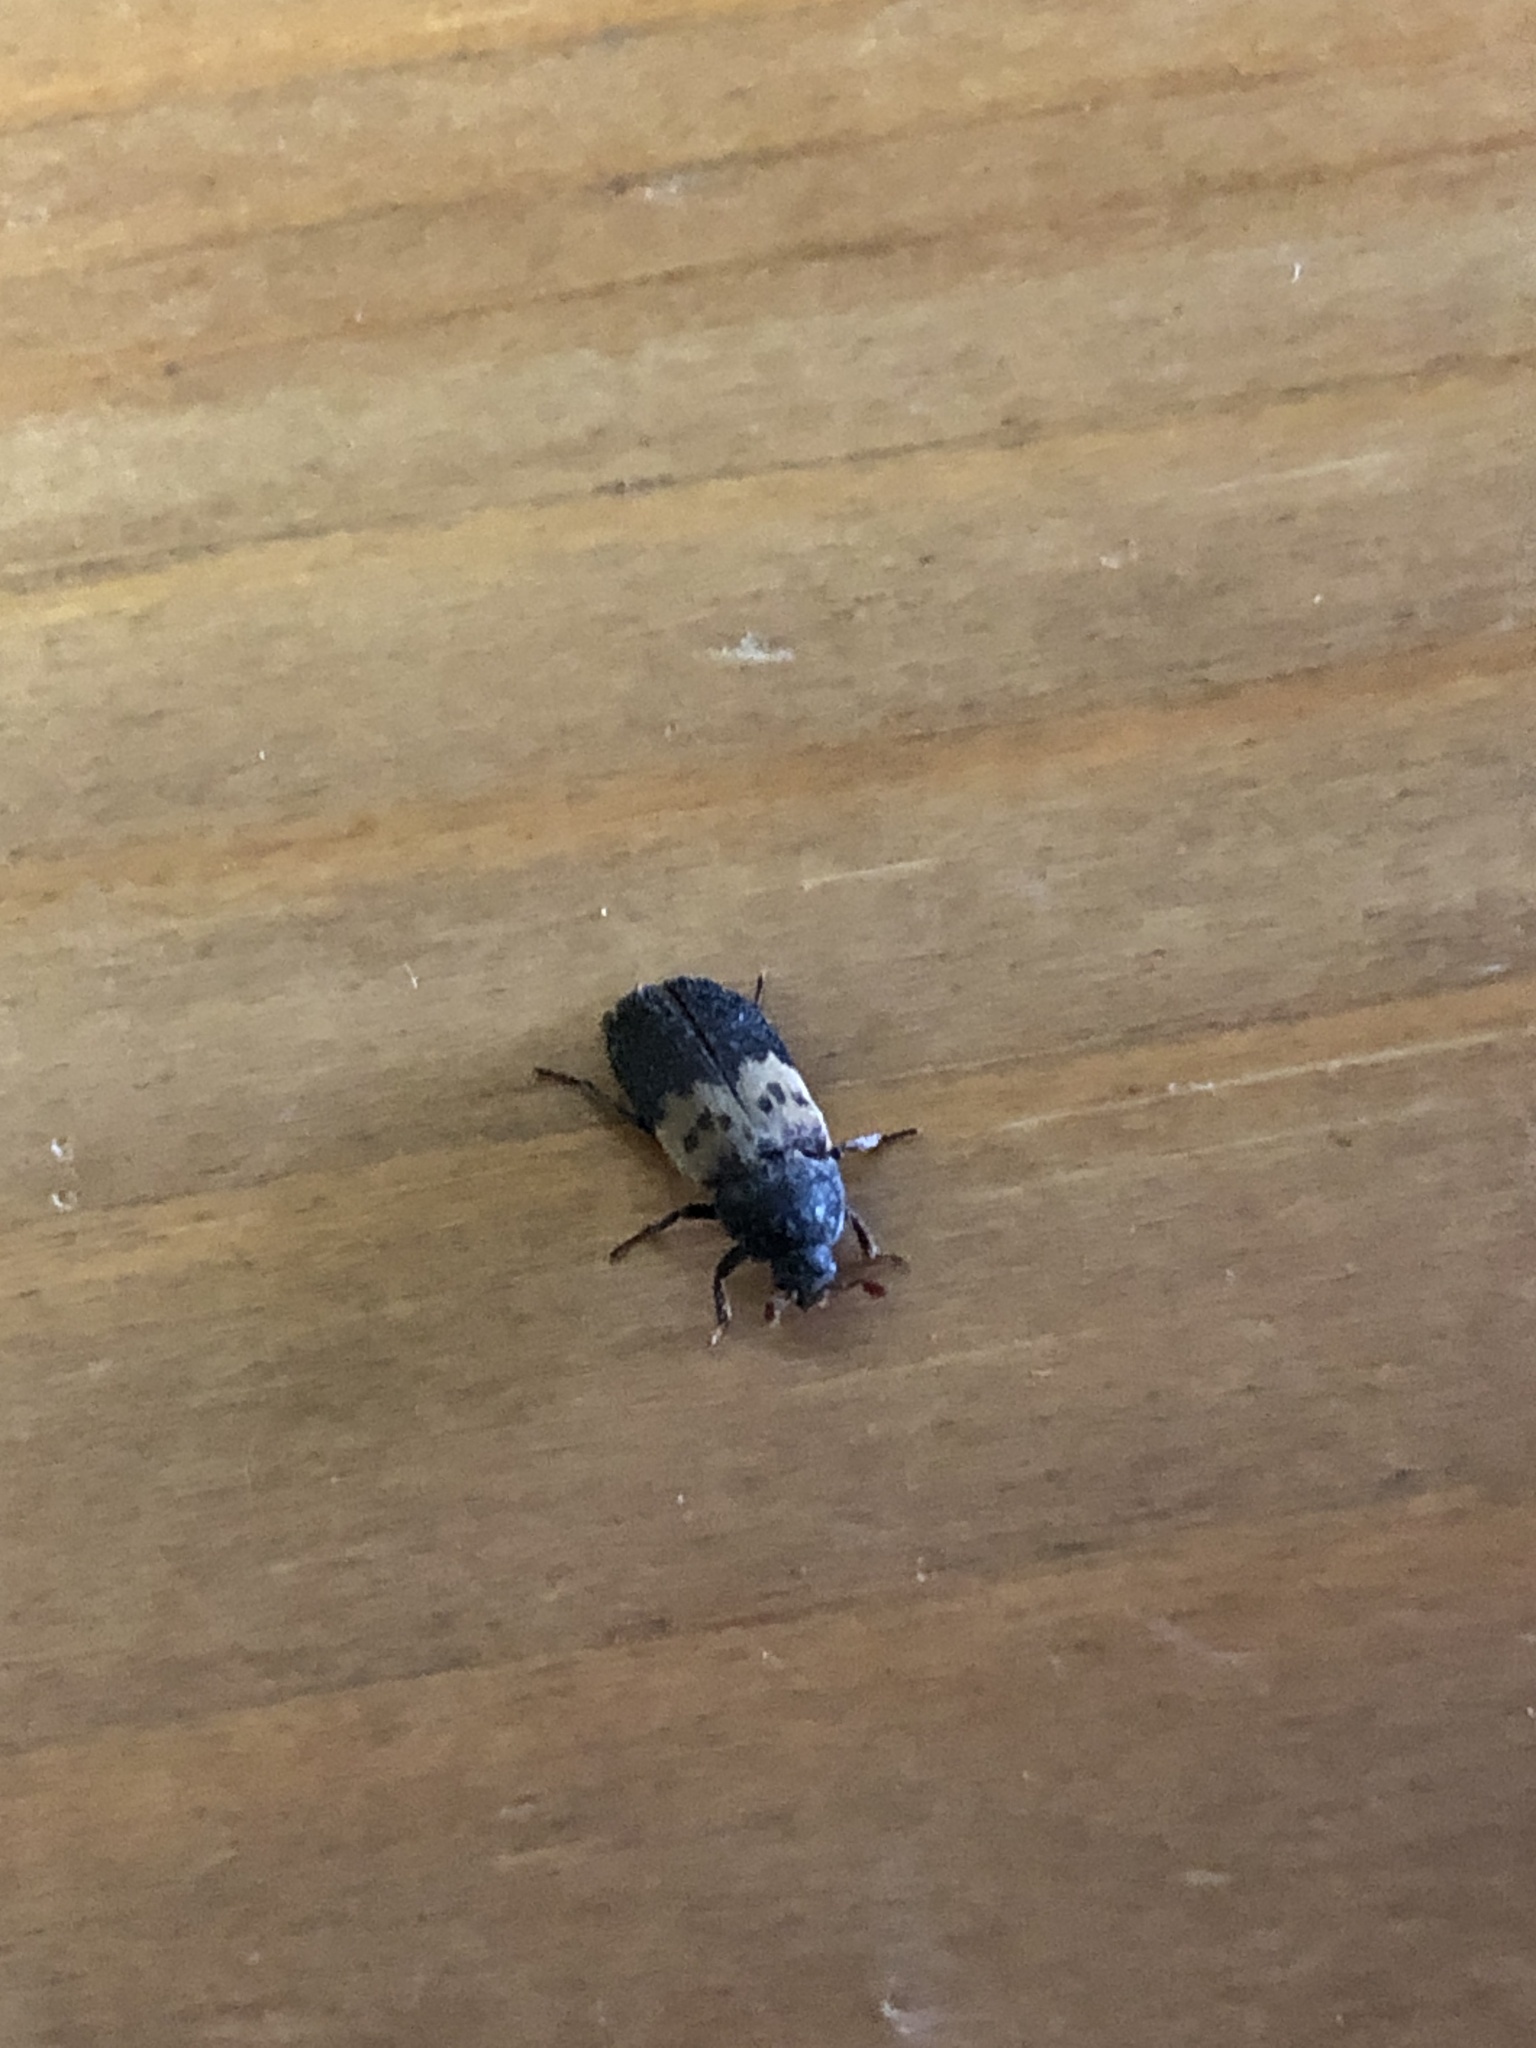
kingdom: Animalia
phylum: Arthropoda
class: Insecta
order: Coleoptera
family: Dermestidae
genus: Dermestes
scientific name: Dermestes lardarius
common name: Larder beetle
